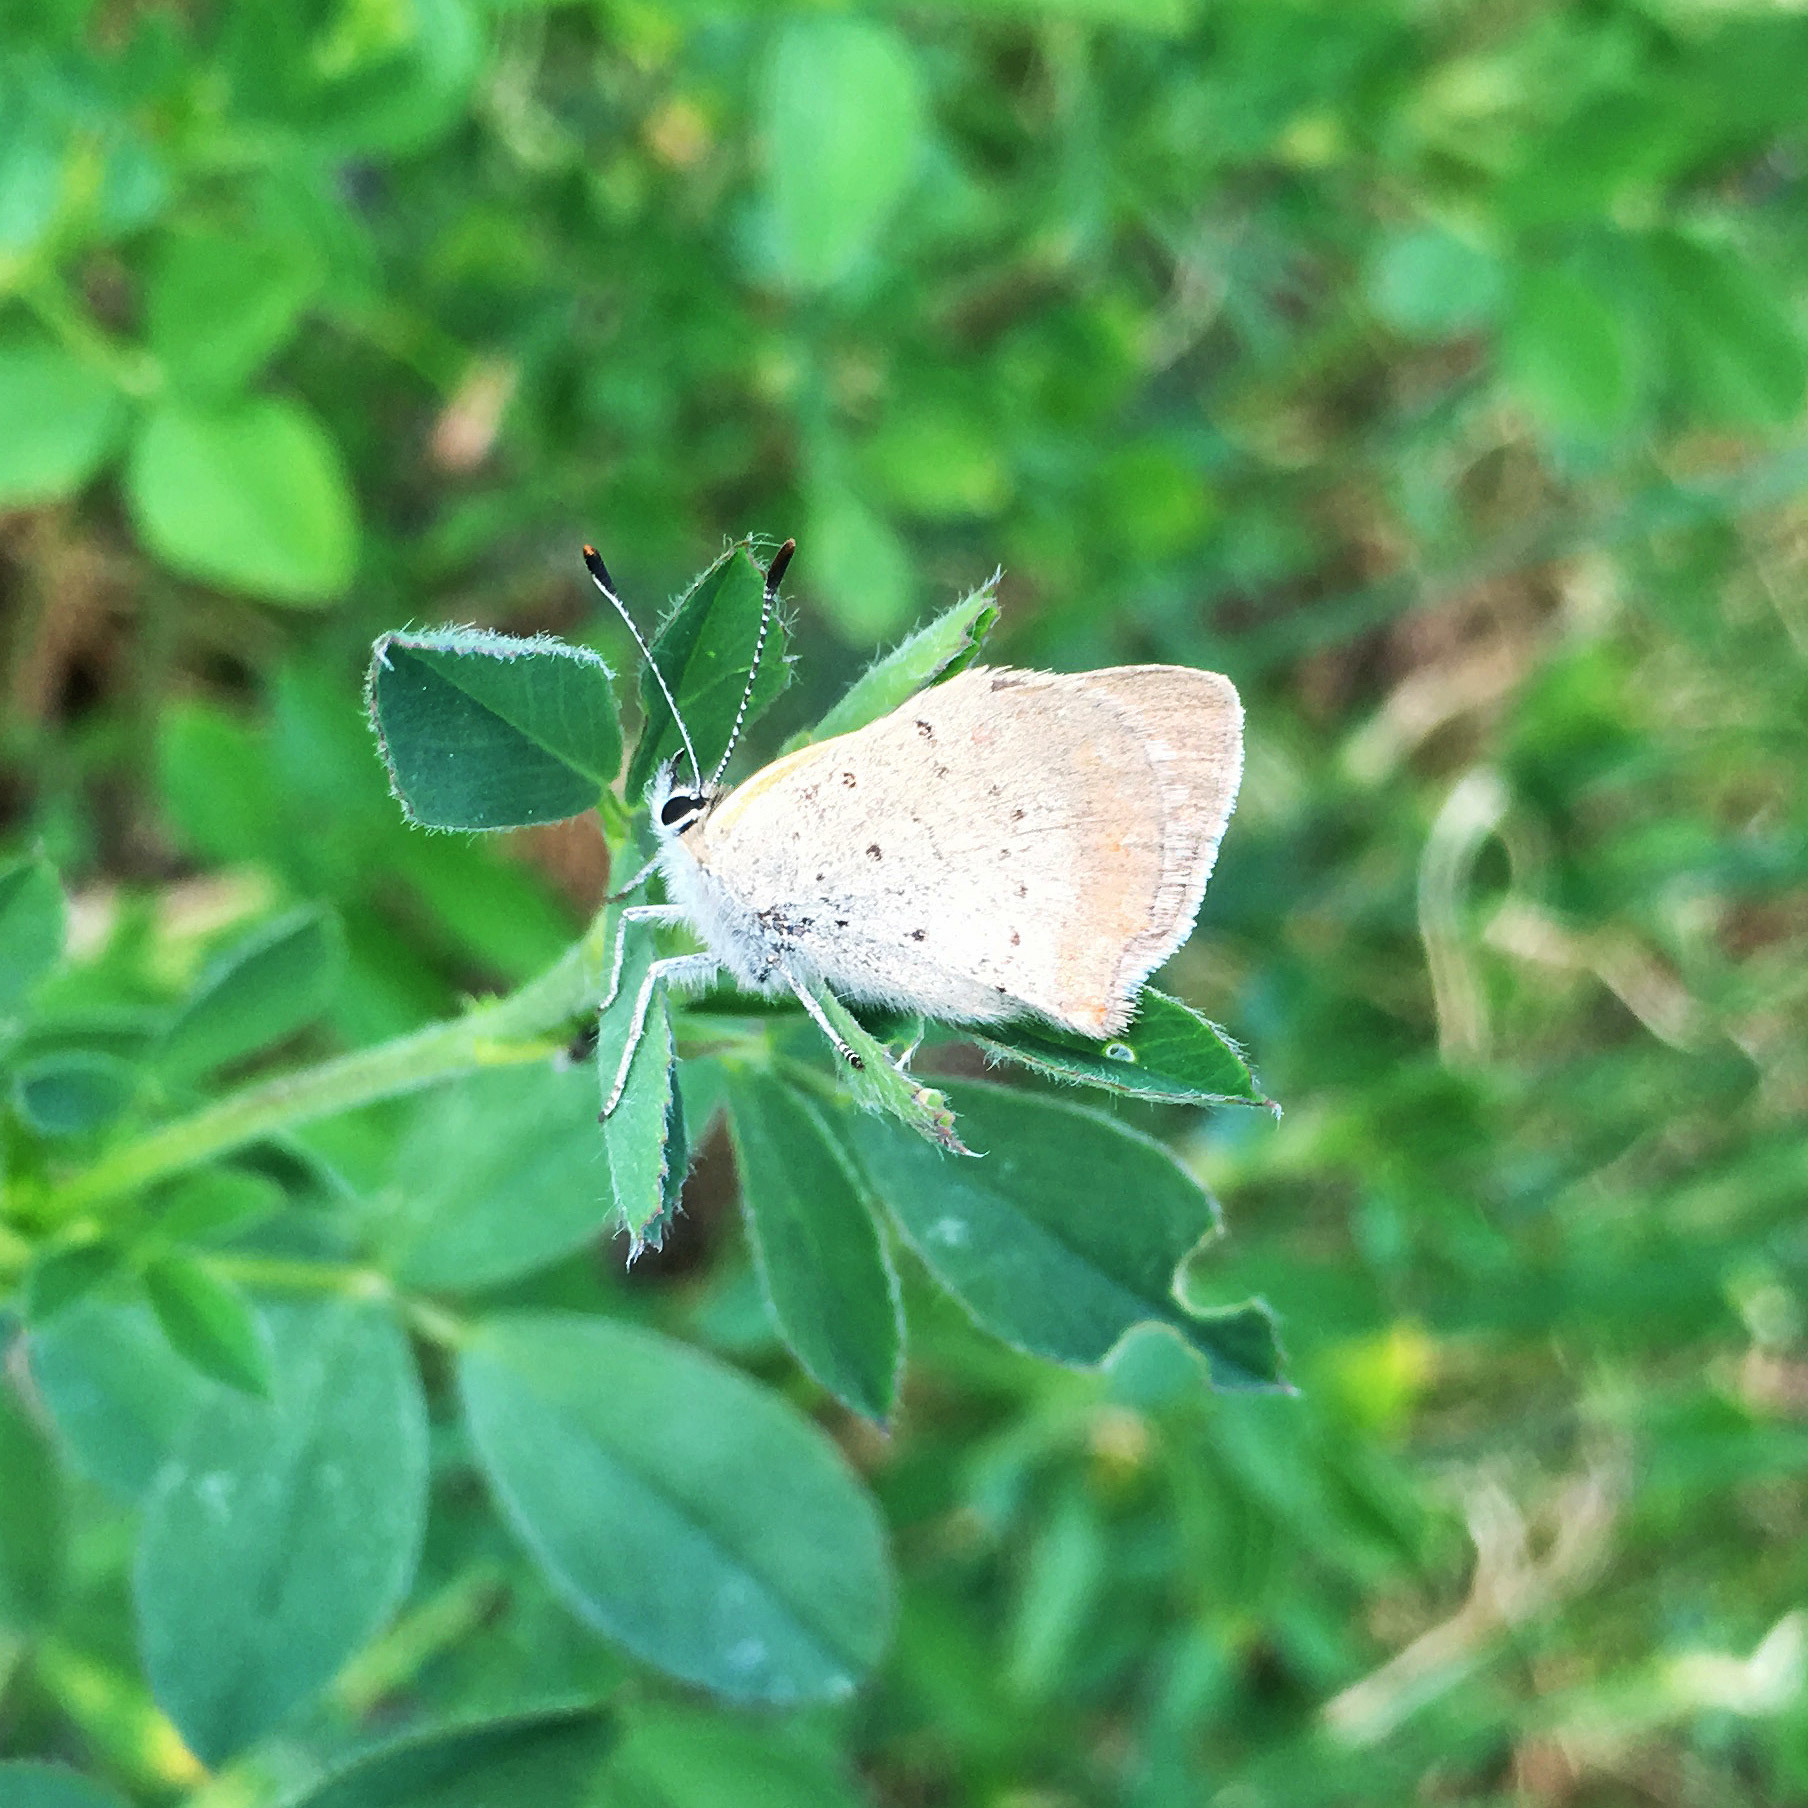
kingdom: Animalia
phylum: Arthropoda
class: Insecta
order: Lepidoptera
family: Lycaenidae
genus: Lycaena
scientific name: Lycaena phlaeas
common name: Small copper
